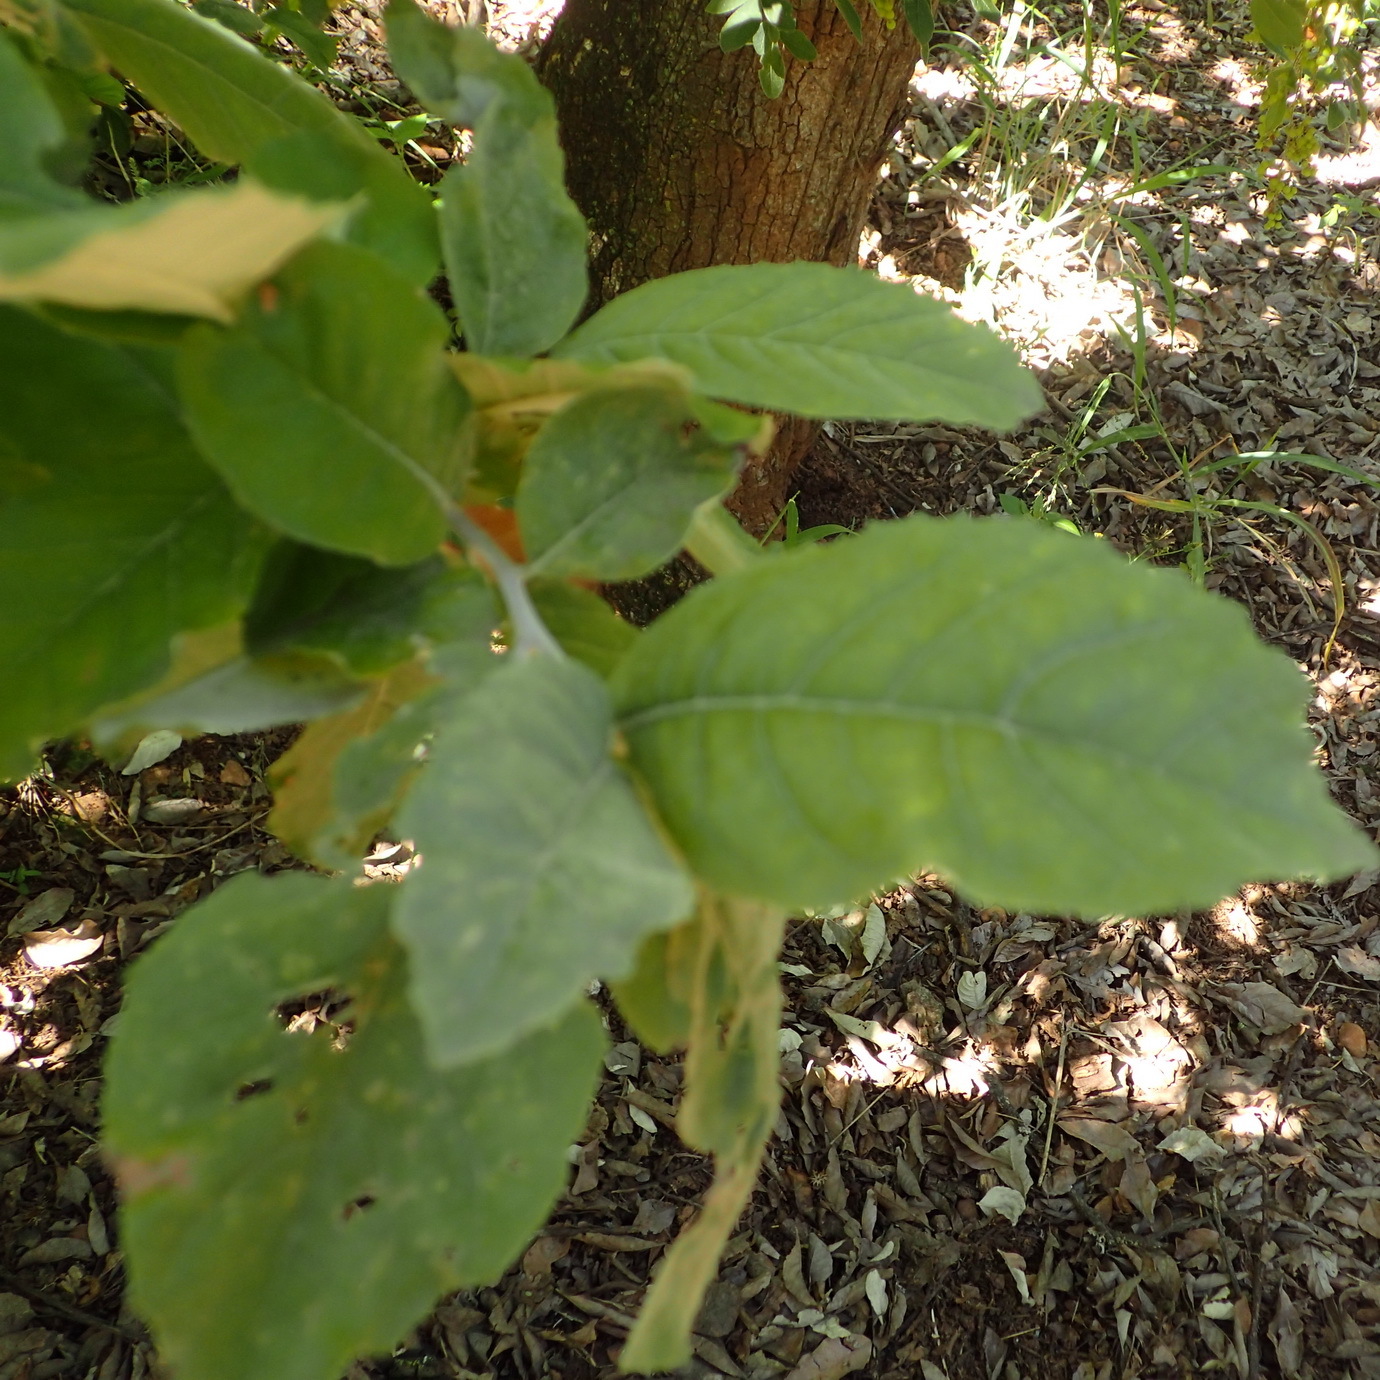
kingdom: Plantae
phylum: Tracheophyta
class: Magnoliopsida
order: Asterales
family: Asteraceae
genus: Brachylaena
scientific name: Brachylaena discolor
